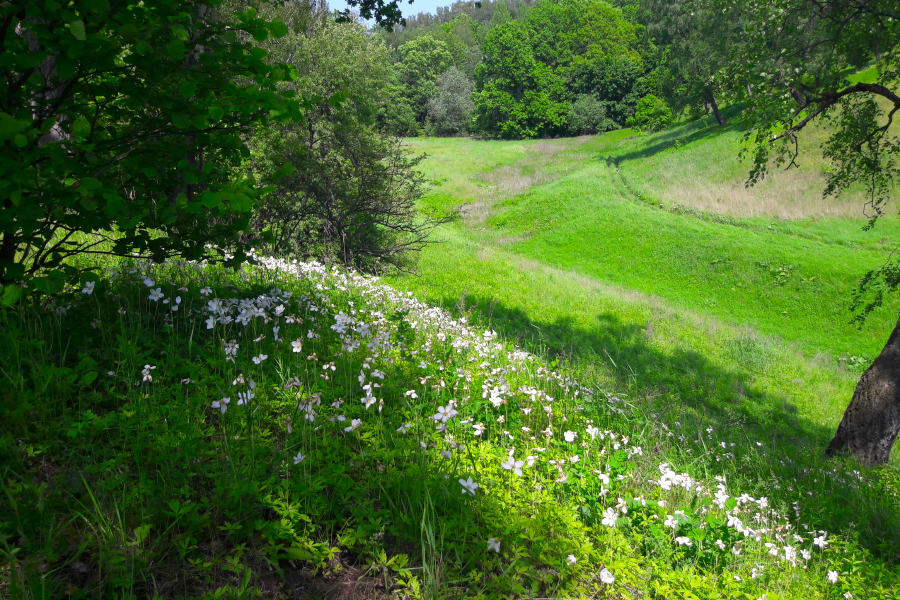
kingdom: Plantae
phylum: Tracheophyta
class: Magnoliopsida
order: Ranunculales
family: Ranunculaceae
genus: Anemone
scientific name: Anemone sylvestris
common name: Snowdrop anemone
